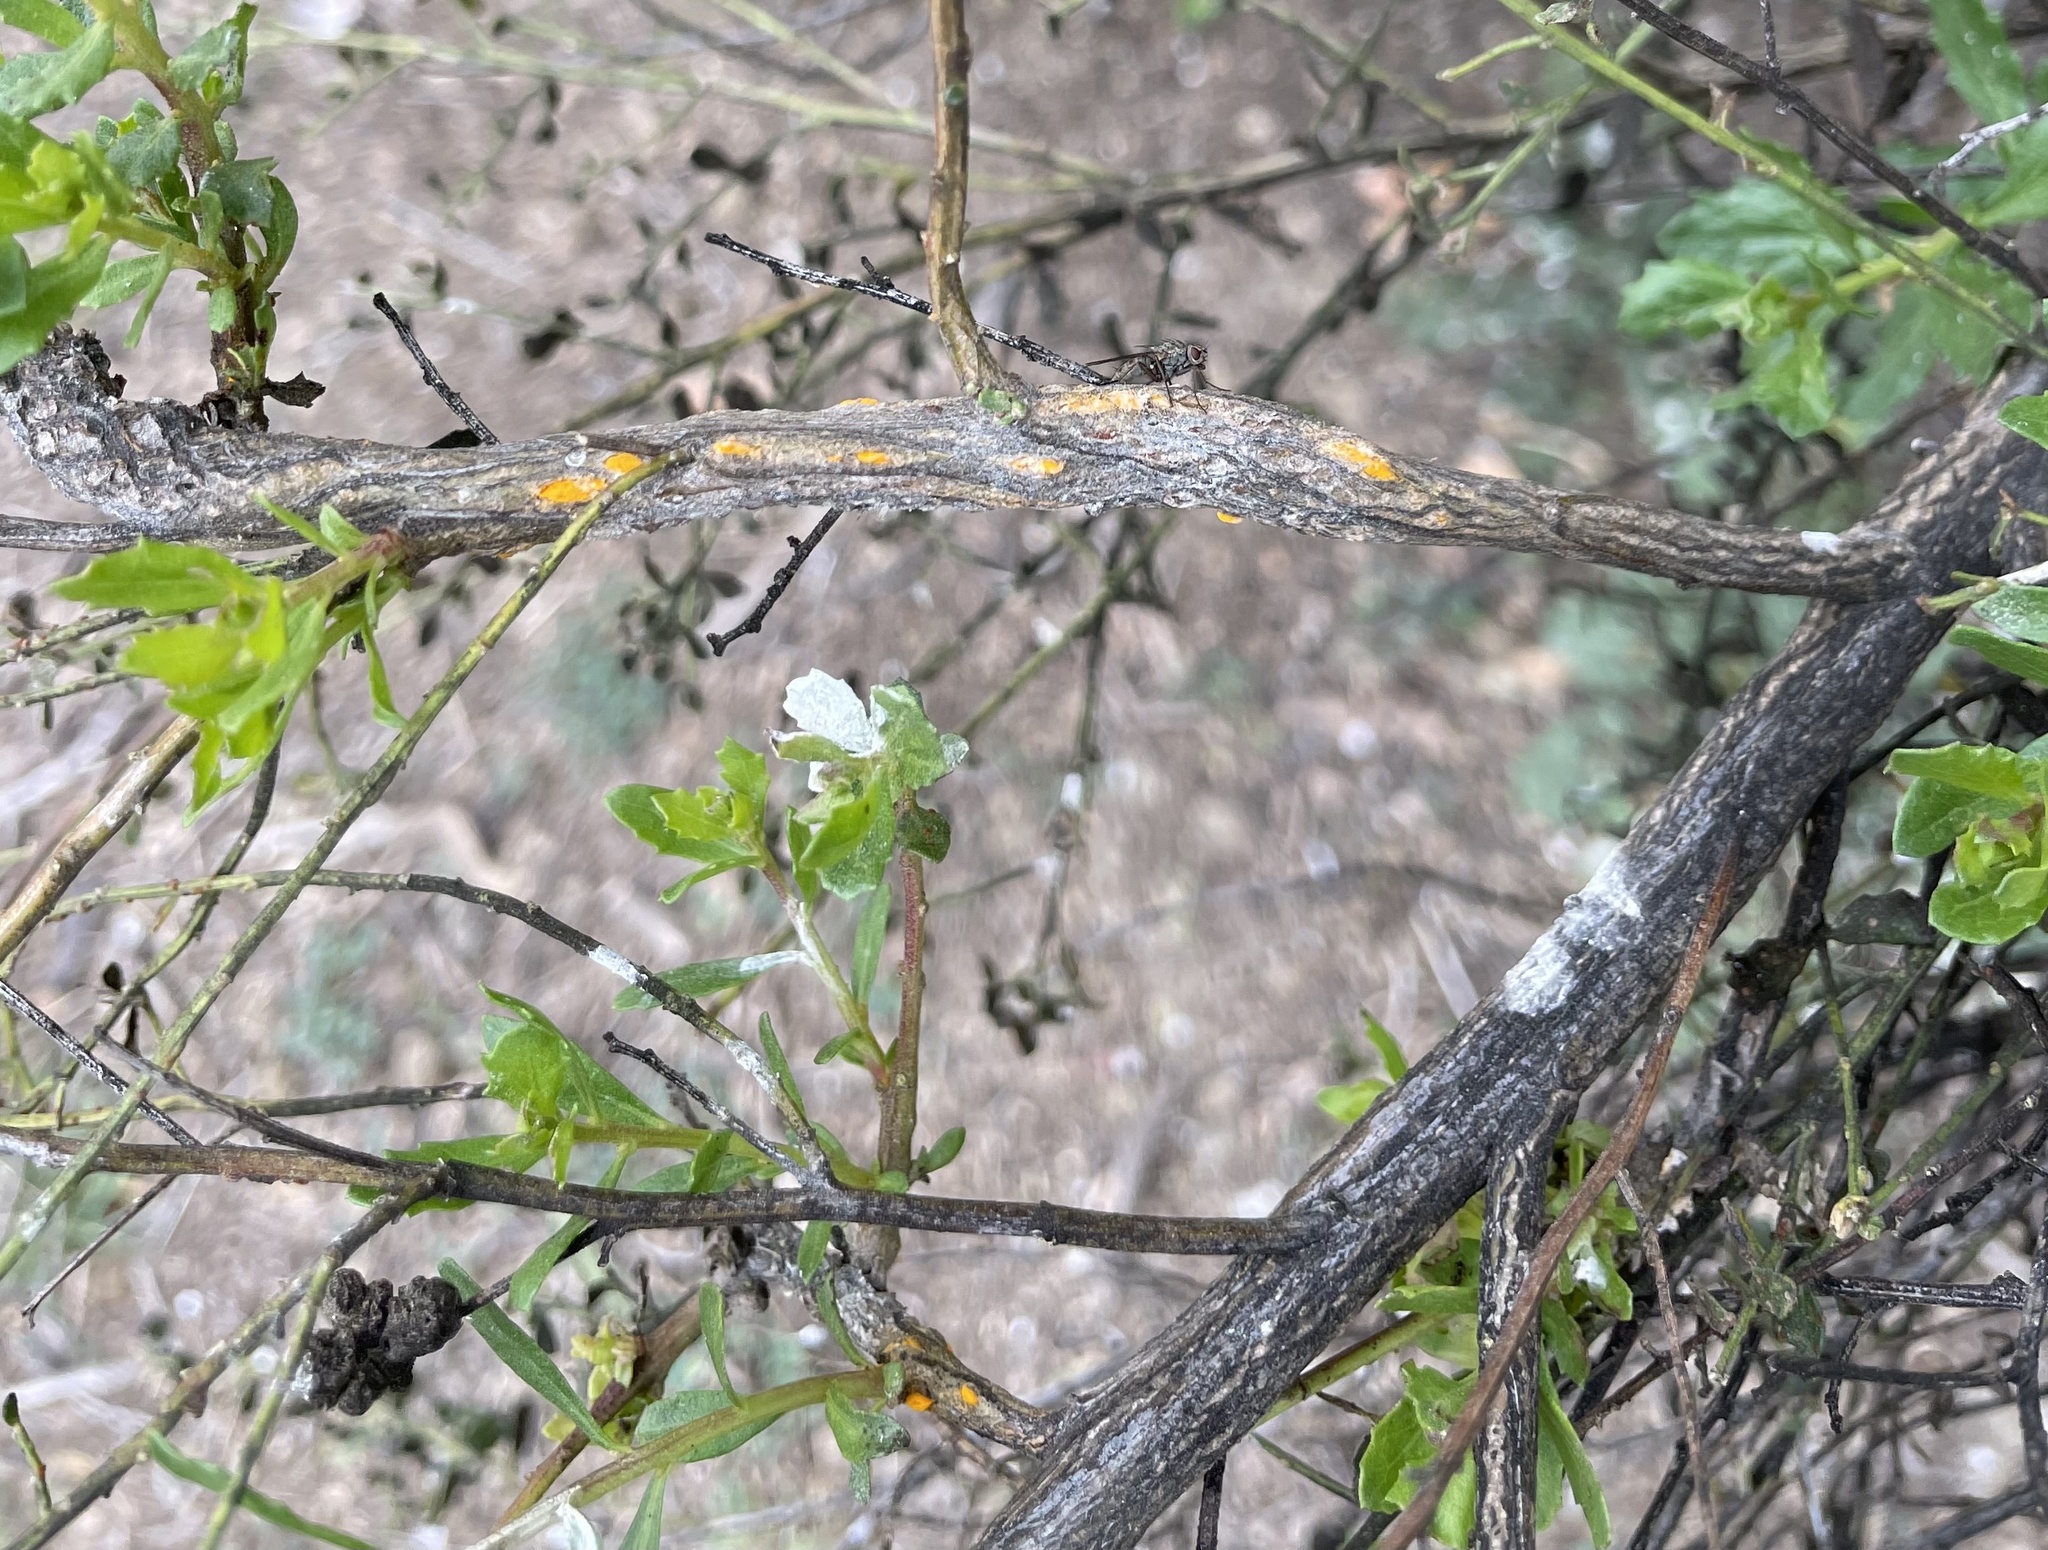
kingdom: Fungi
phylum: Basidiomycota
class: Pucciniomycetes
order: Pucciniales
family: Pucciniaceae
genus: Eriosporangium
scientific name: Eriosporangium evadens
